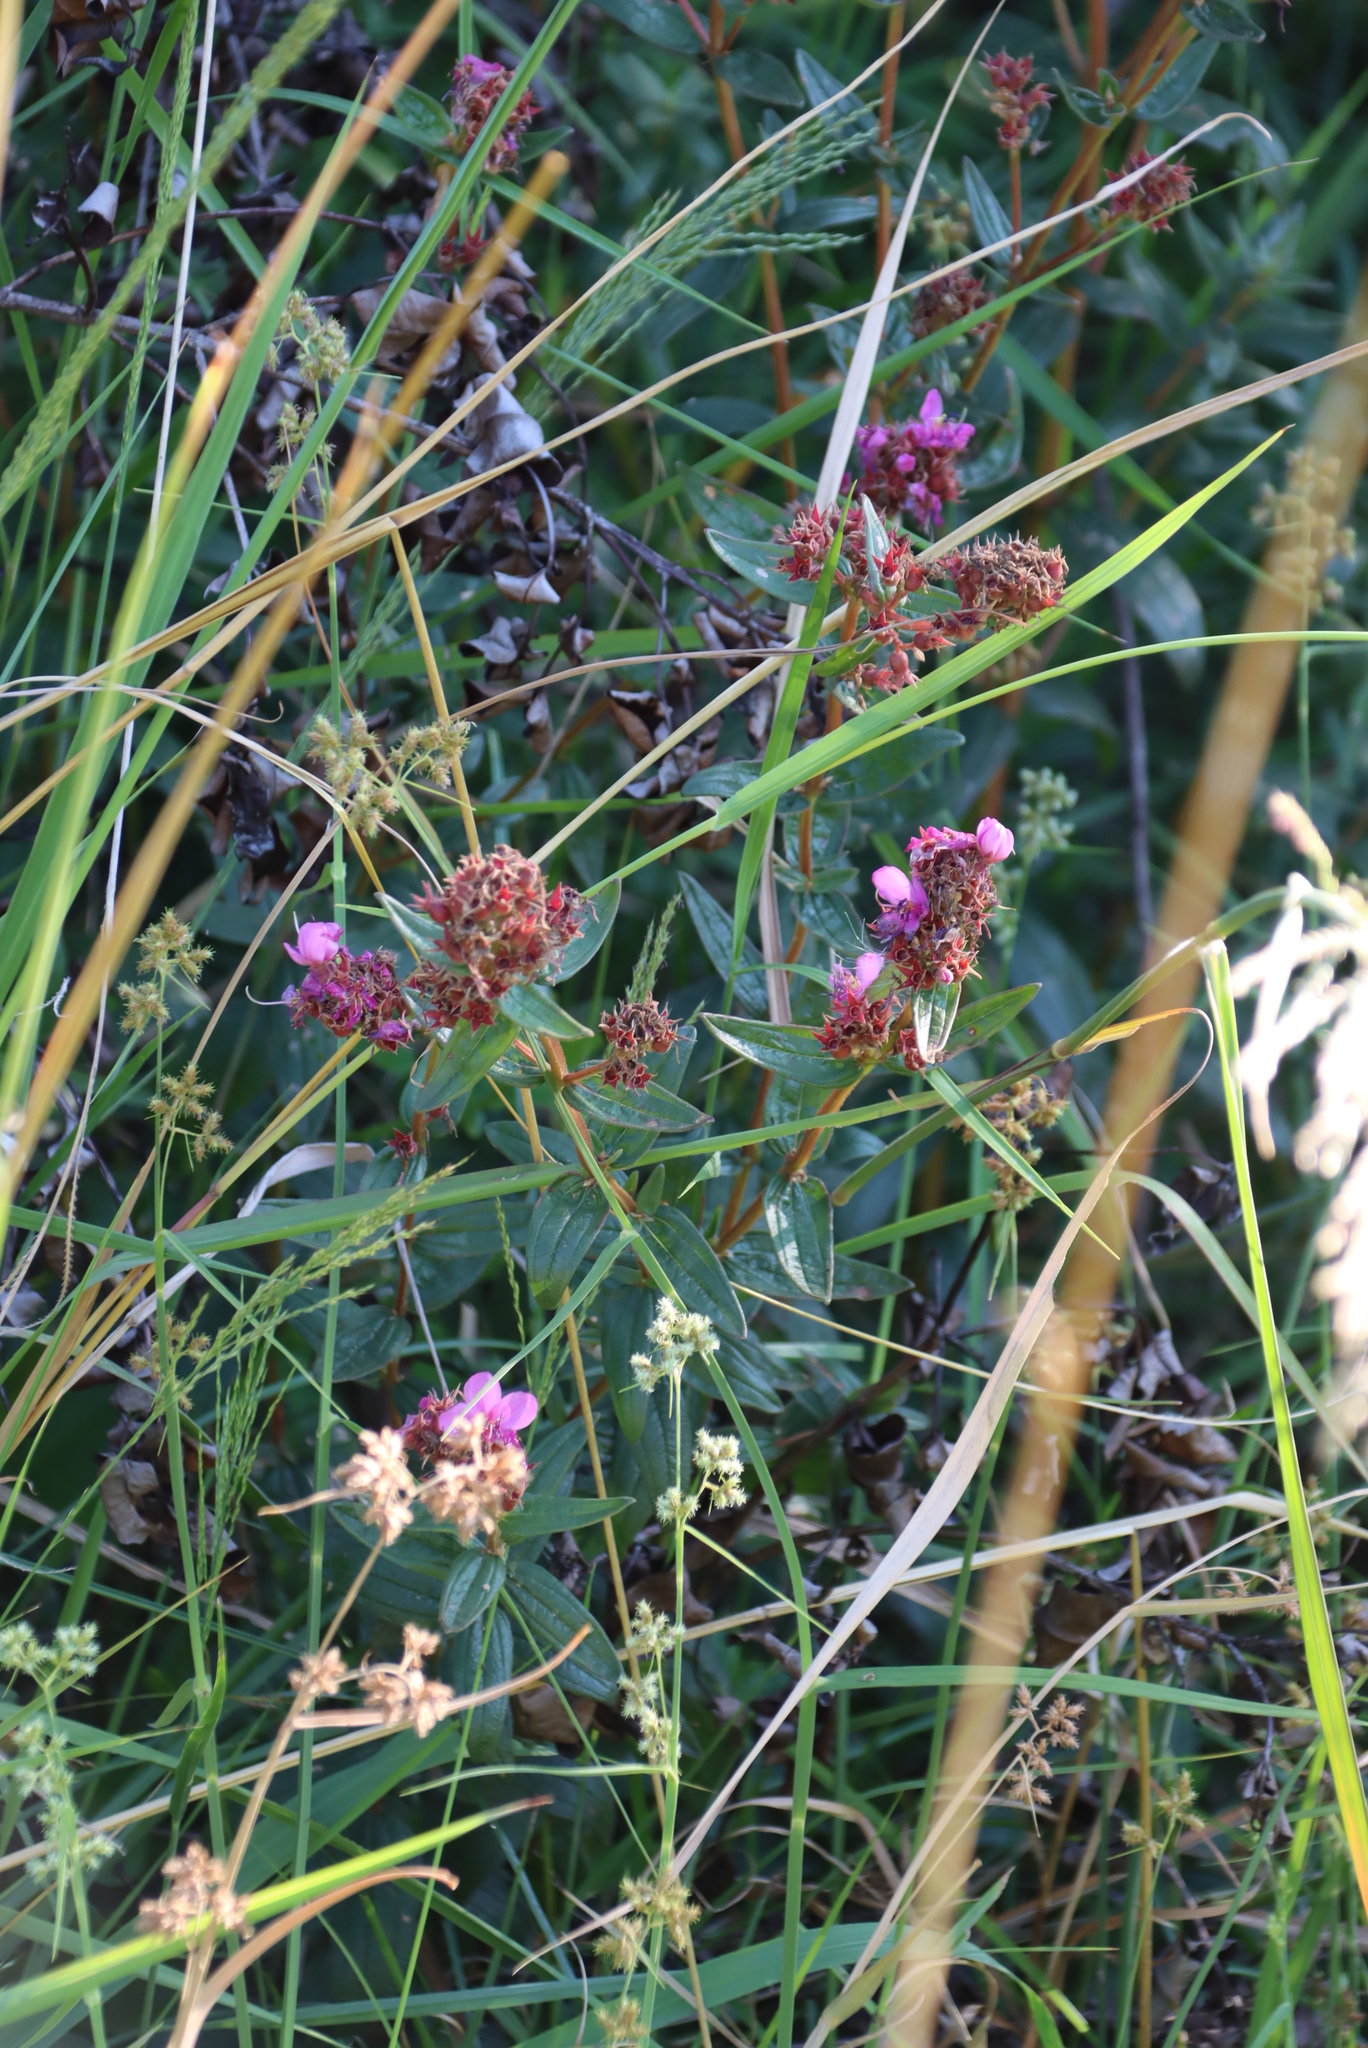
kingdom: Plantae
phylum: Tracheophyta
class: Magnoliopsida
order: Myrtales
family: Melastomataceae
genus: Argyrella
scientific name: Argyrella canescens
